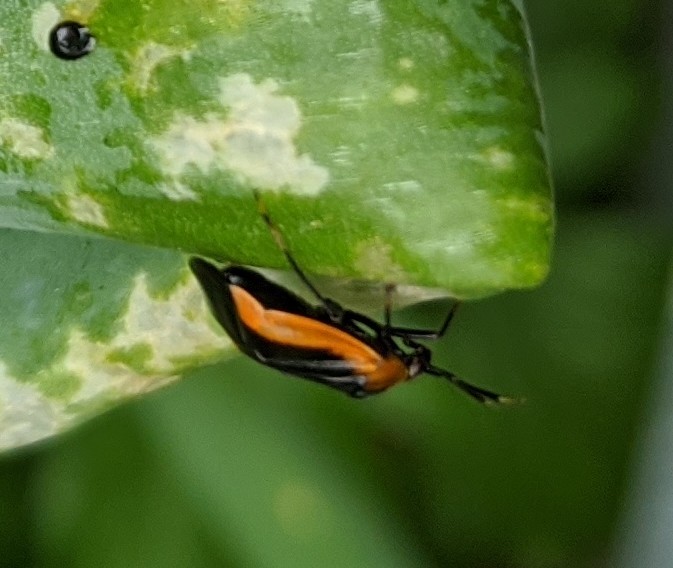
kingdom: Animalia
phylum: Arthropoda
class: Insecta
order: Hemiptera
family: Miridae
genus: Metriorrhynchomiris
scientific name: Metriorrhynchomiris dislocatus
